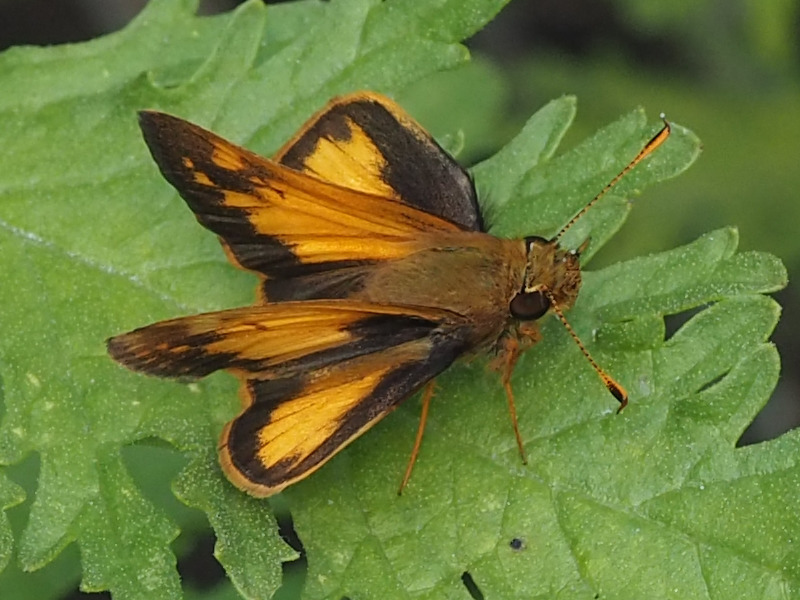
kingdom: Animalia
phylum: Arthropoda
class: Insecta
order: Lepidoptera
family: Hesperiidae
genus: Lon
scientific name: Lon zabulon
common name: Zabulon skipper
